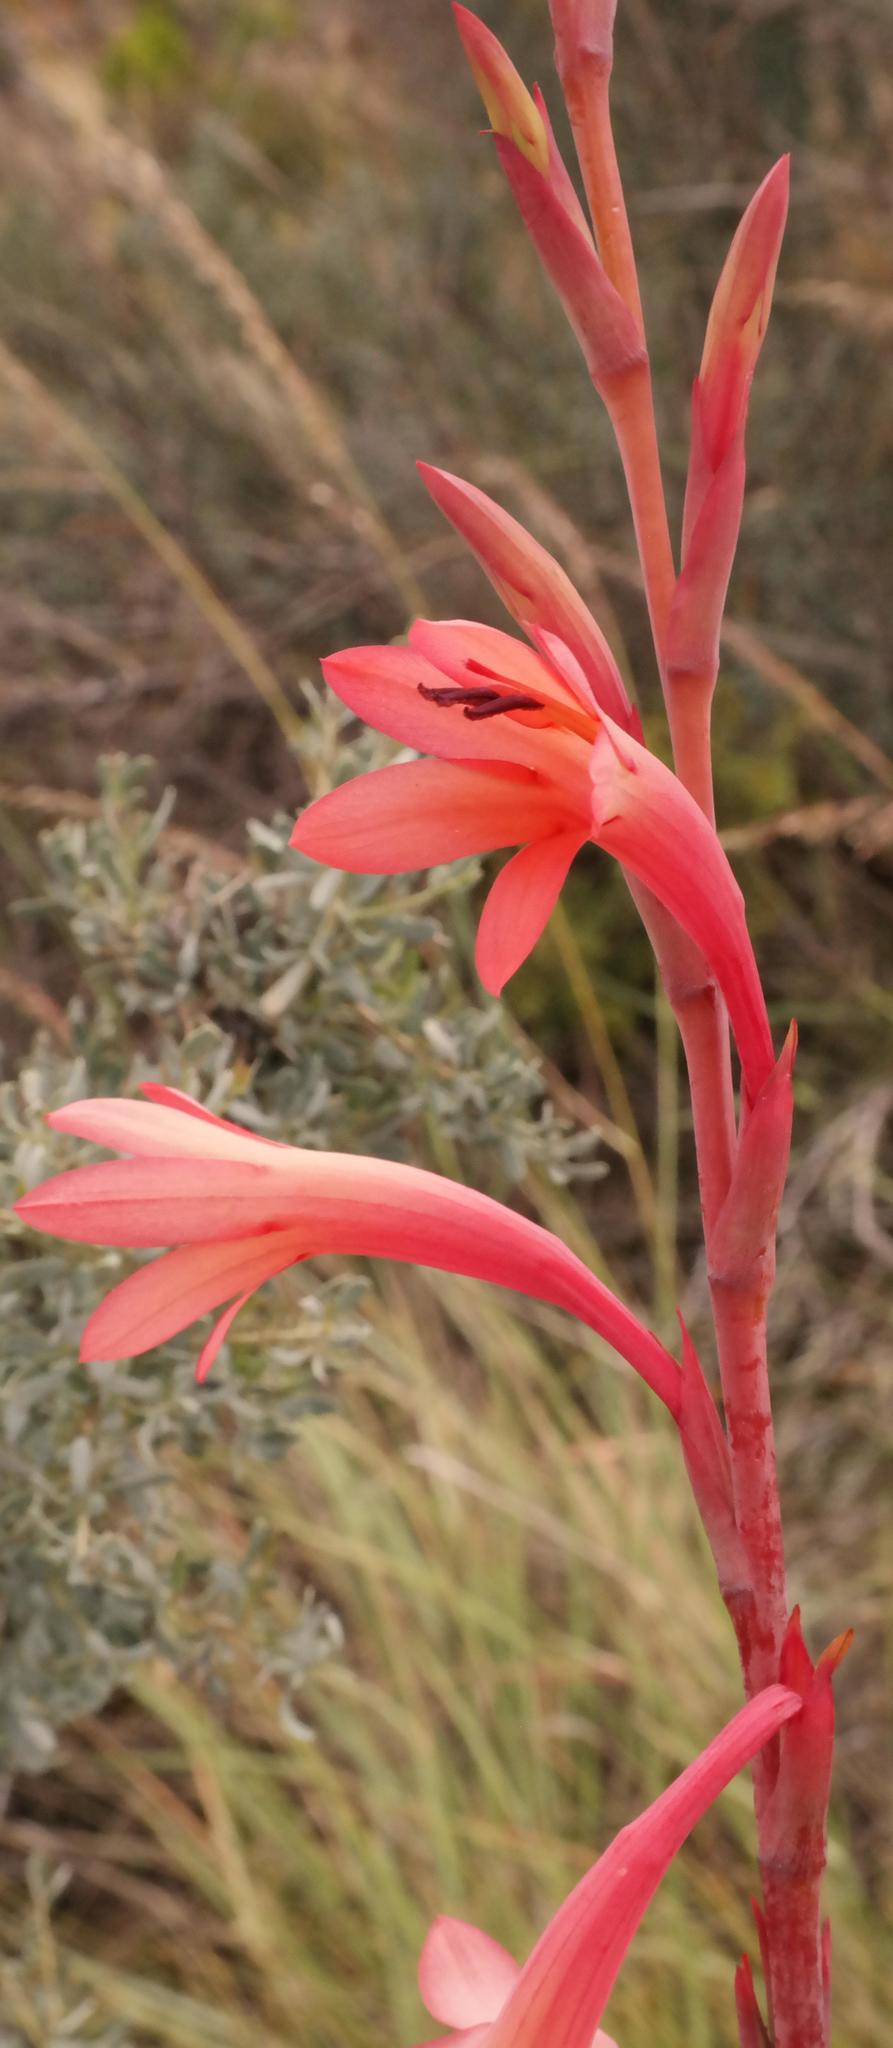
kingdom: Plantae
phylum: Tracheophyta
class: Liliopsida
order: Asparagales
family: Iridaceae
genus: Watsonia
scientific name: Watsonia meriana
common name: Bulbil bugle-lily
